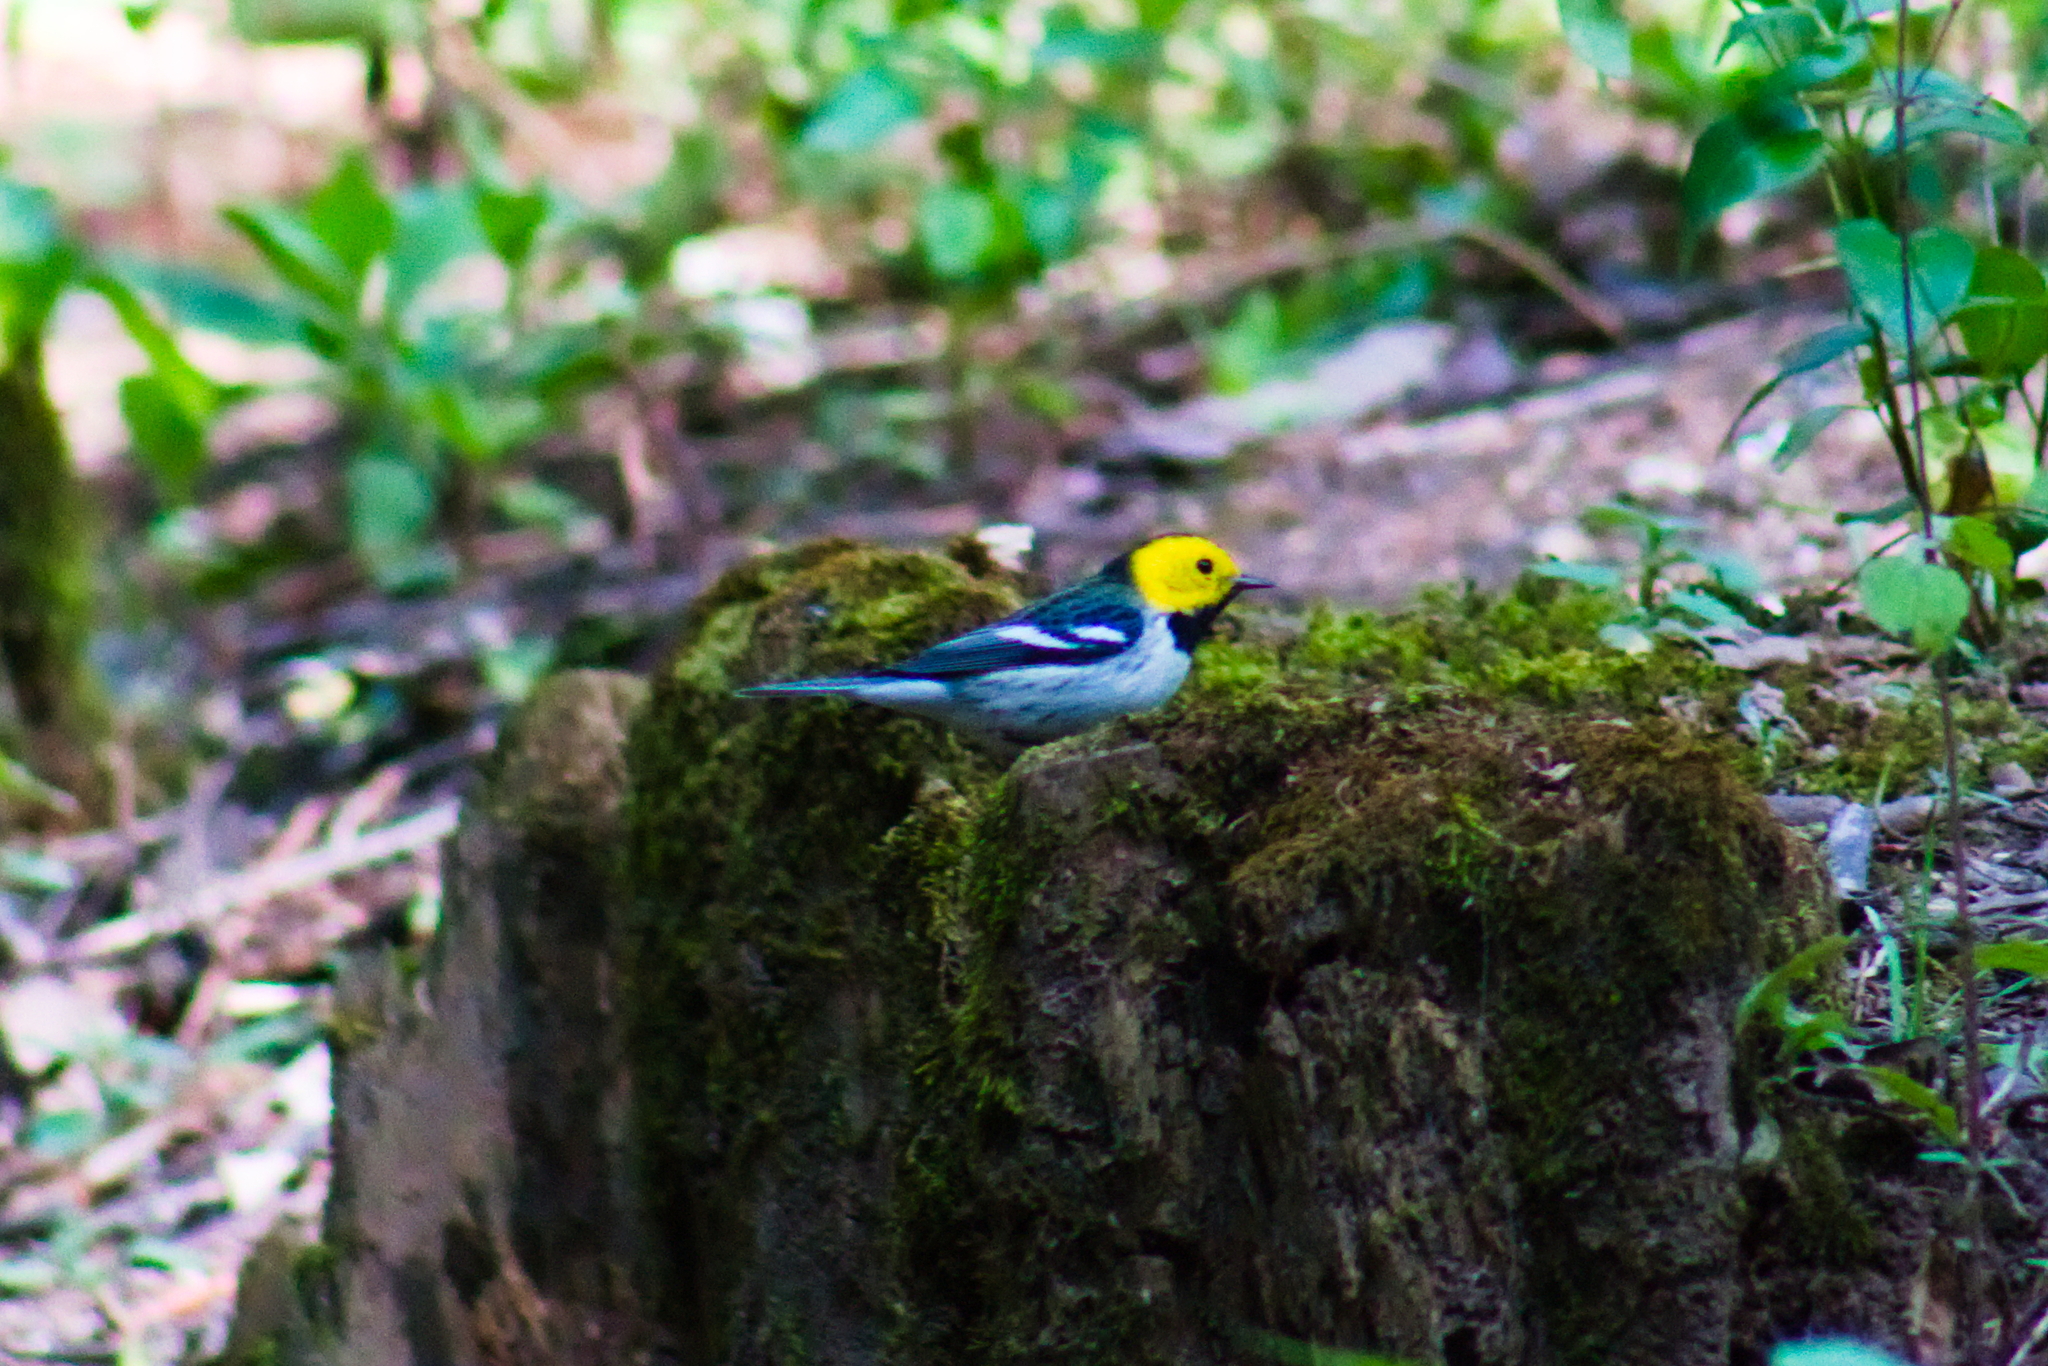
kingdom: Animalia
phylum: Chordata
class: Aves
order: Passeriformes
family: Parulidae
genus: Setophaga
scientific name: Setophaga occidentalis
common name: Hermit warbler
